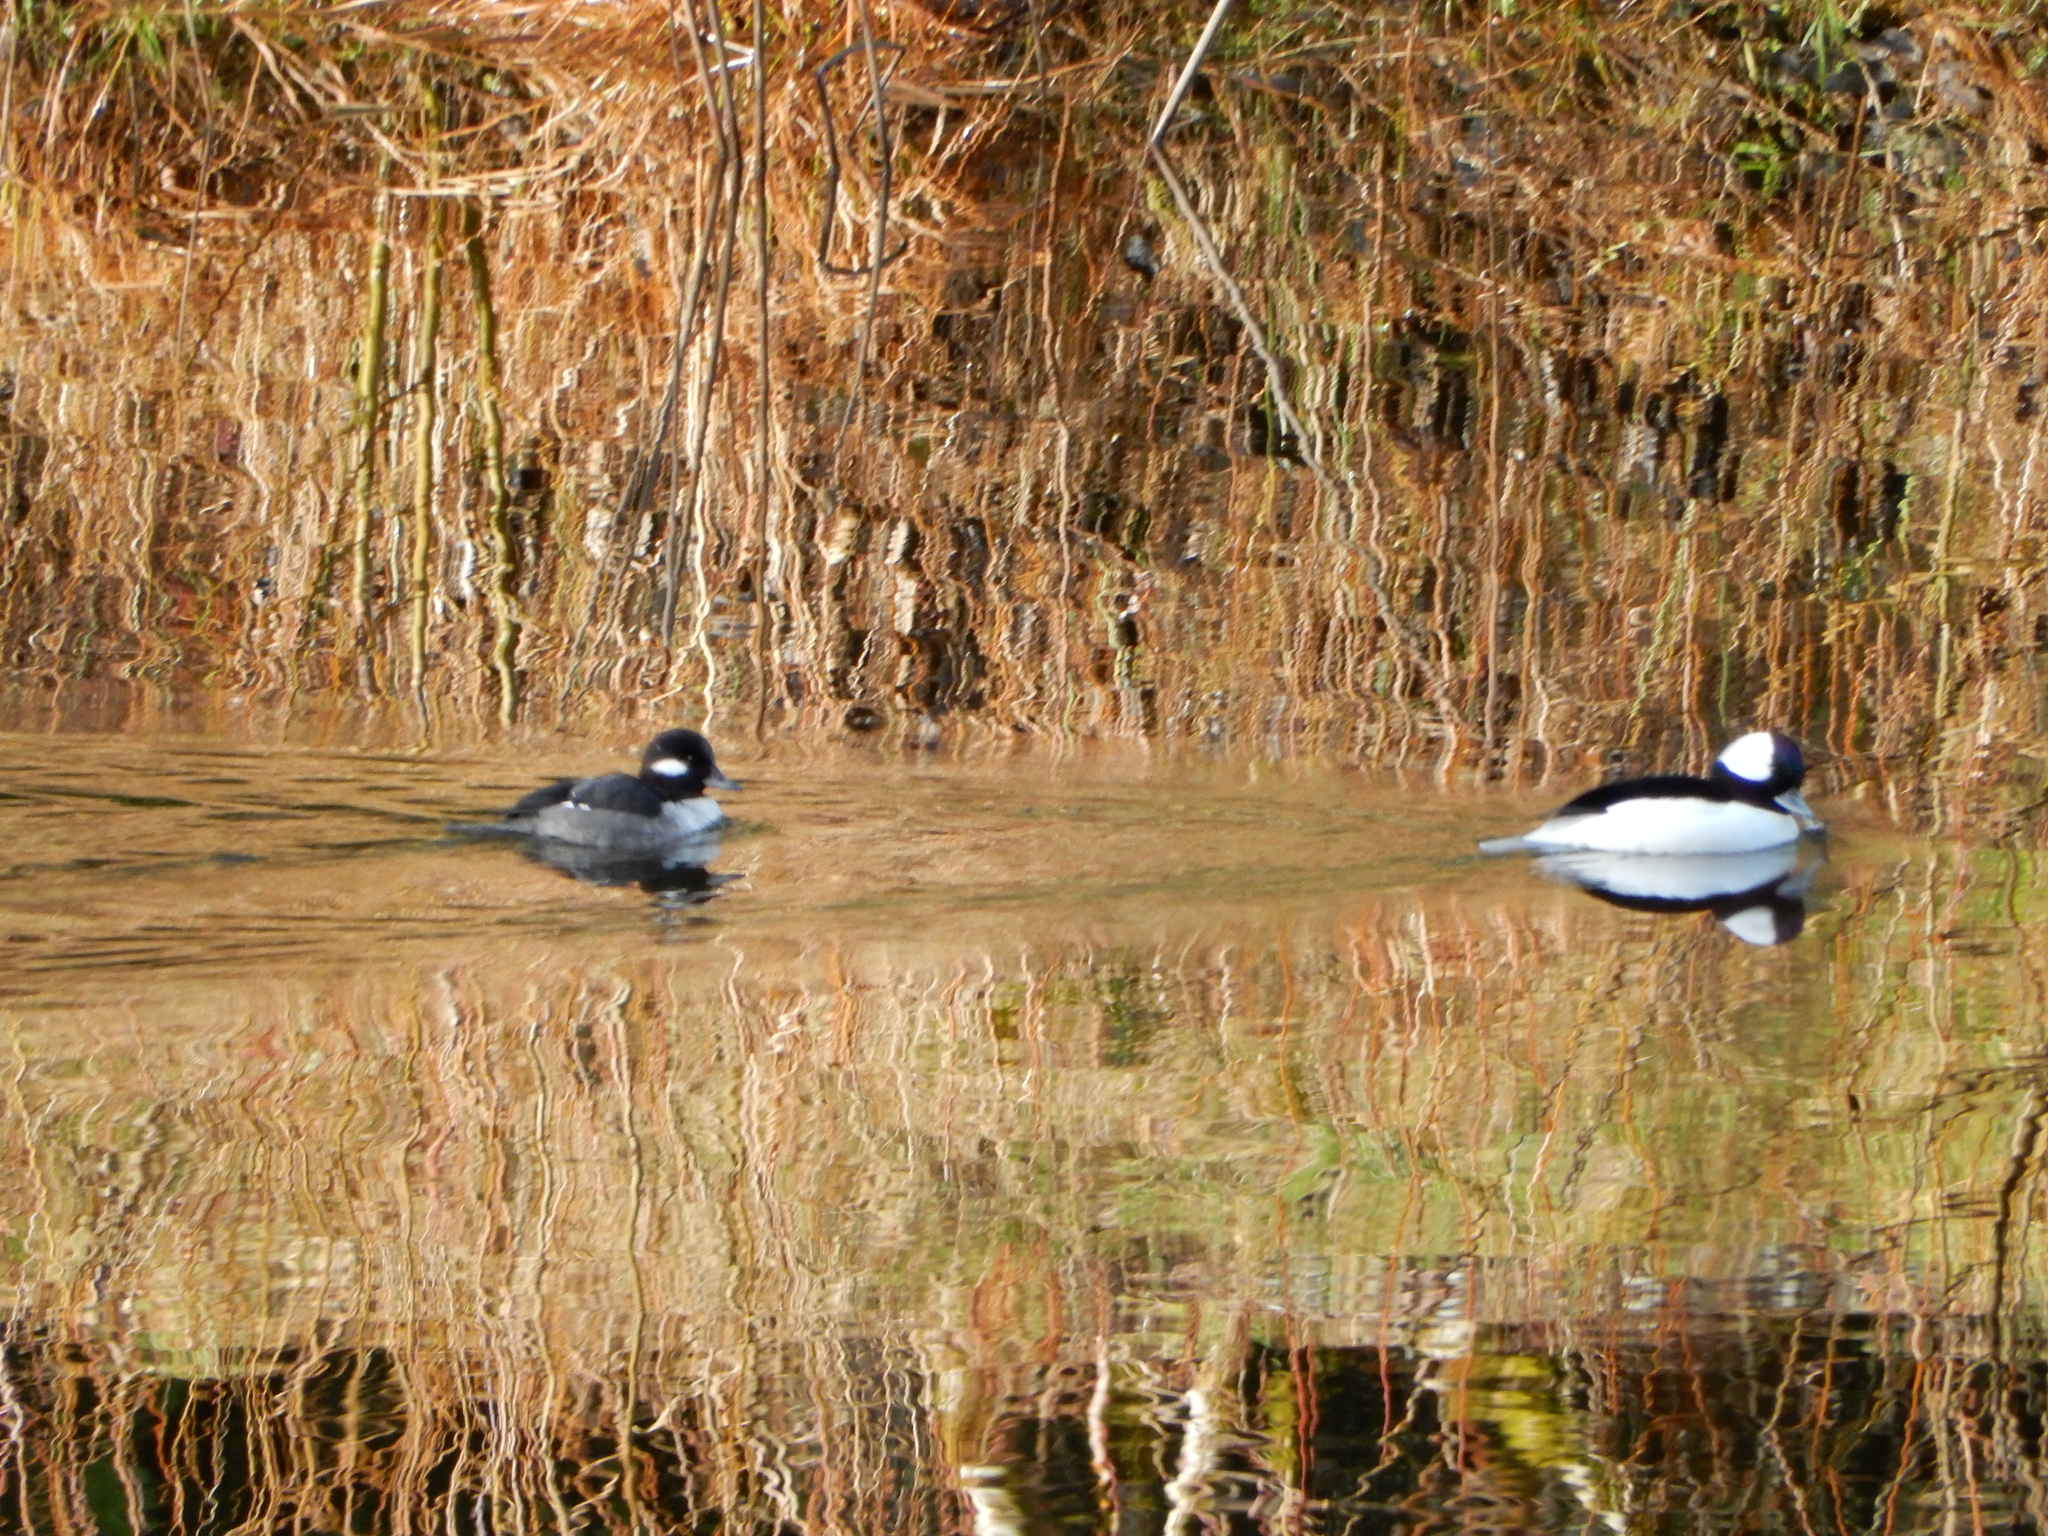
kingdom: Animalia
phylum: Chordata
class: Aves
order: Anseriformes
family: Anatidae
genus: Bucephala
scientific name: Bucephala albeola
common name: Bufflehead
